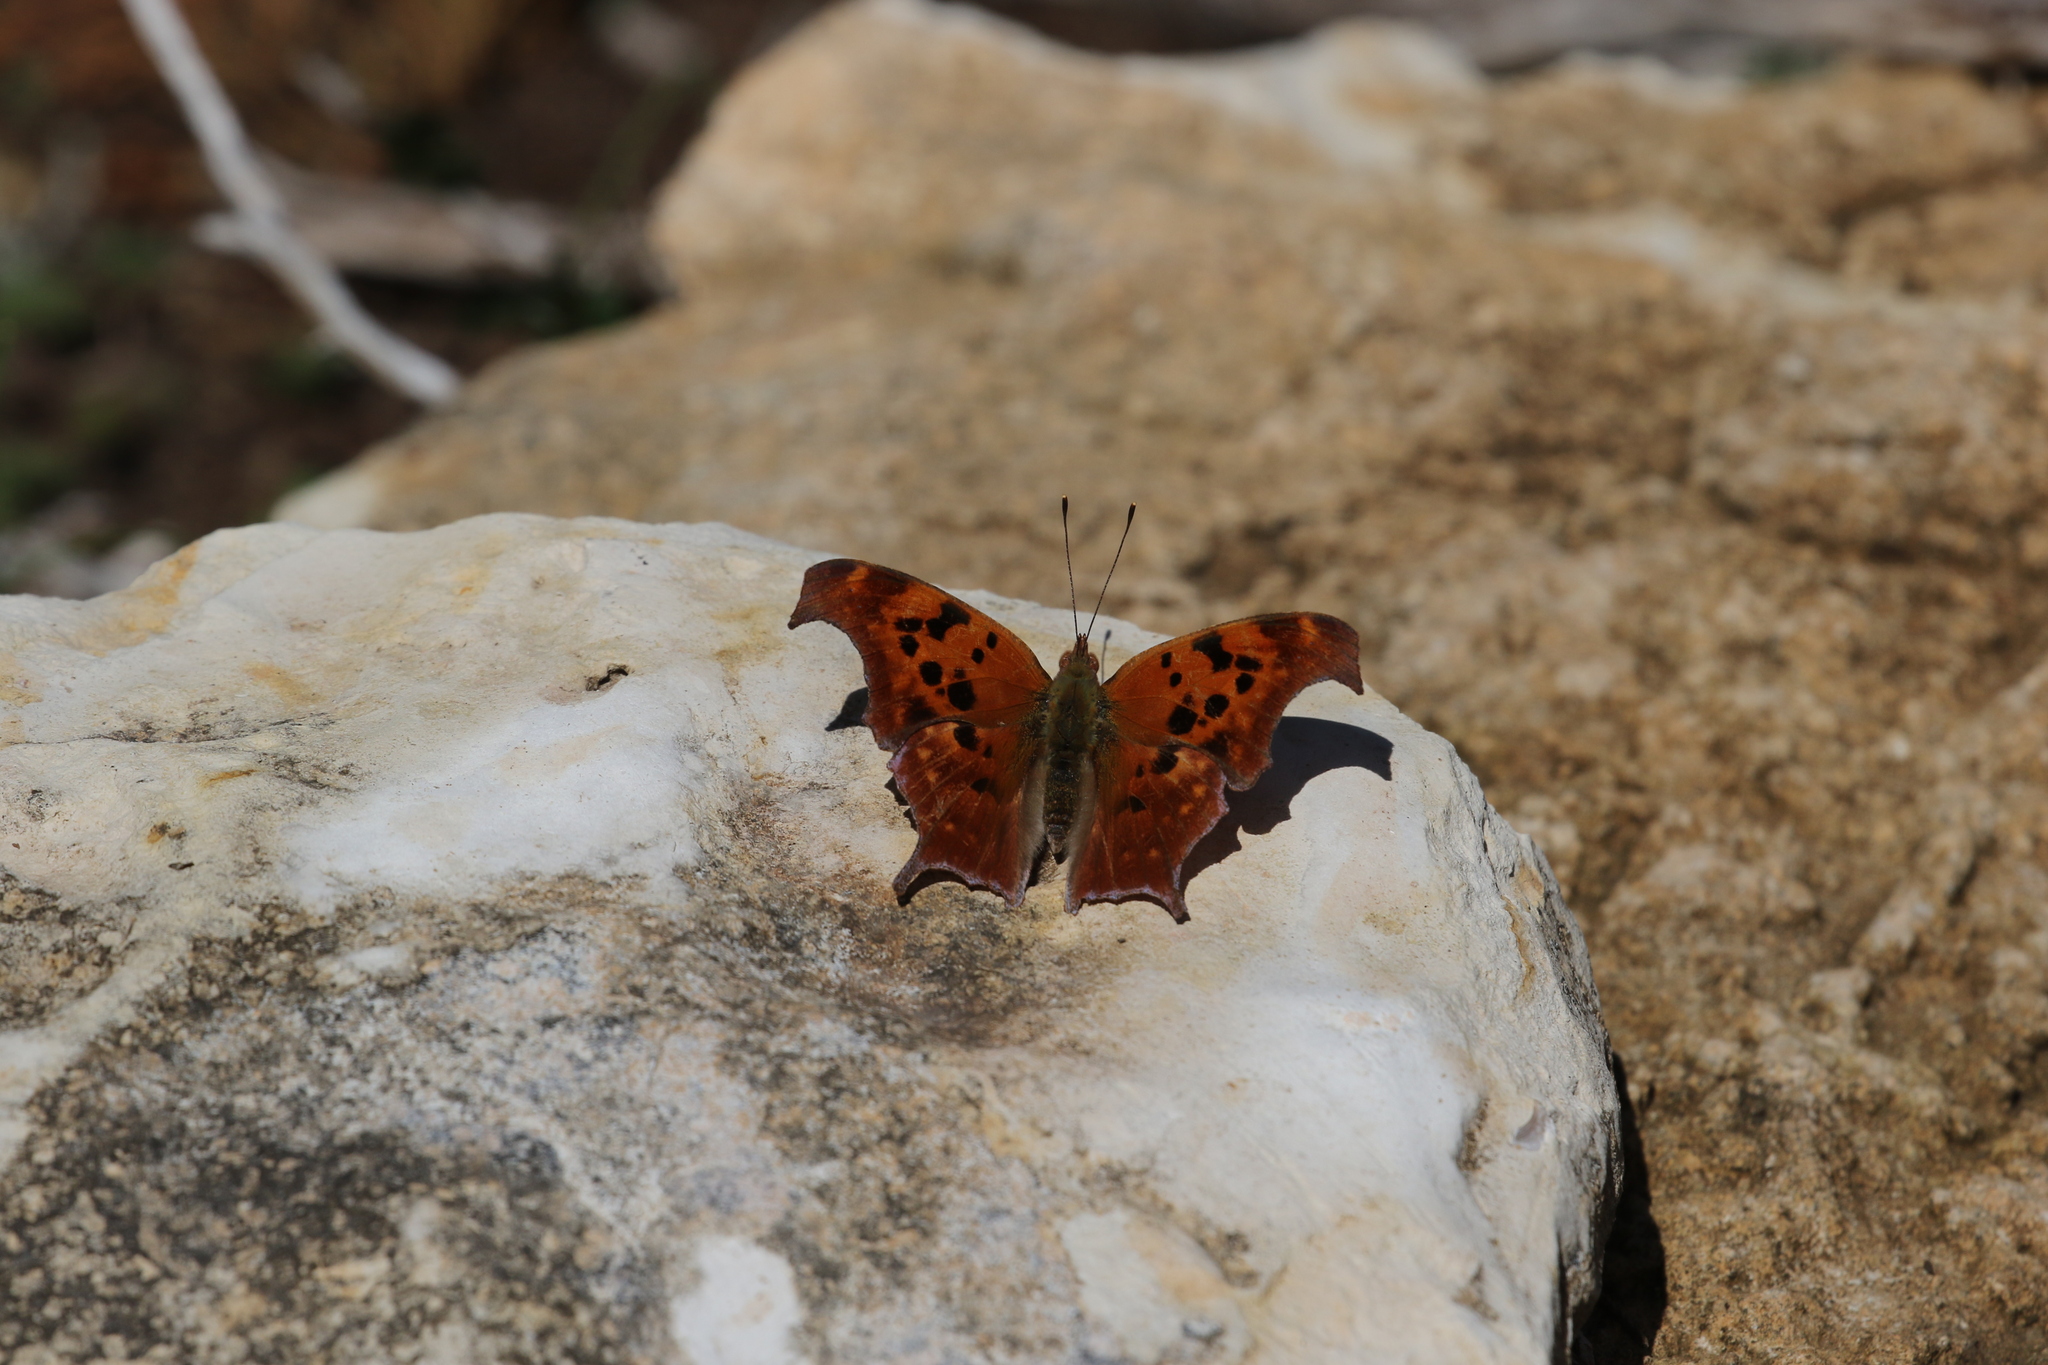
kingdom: Animalia
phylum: Arthropoda
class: Insecta
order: Lepidoptera
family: Nymphalidae
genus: Polygonia
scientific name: Polygonia interrogationis
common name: Question mark
